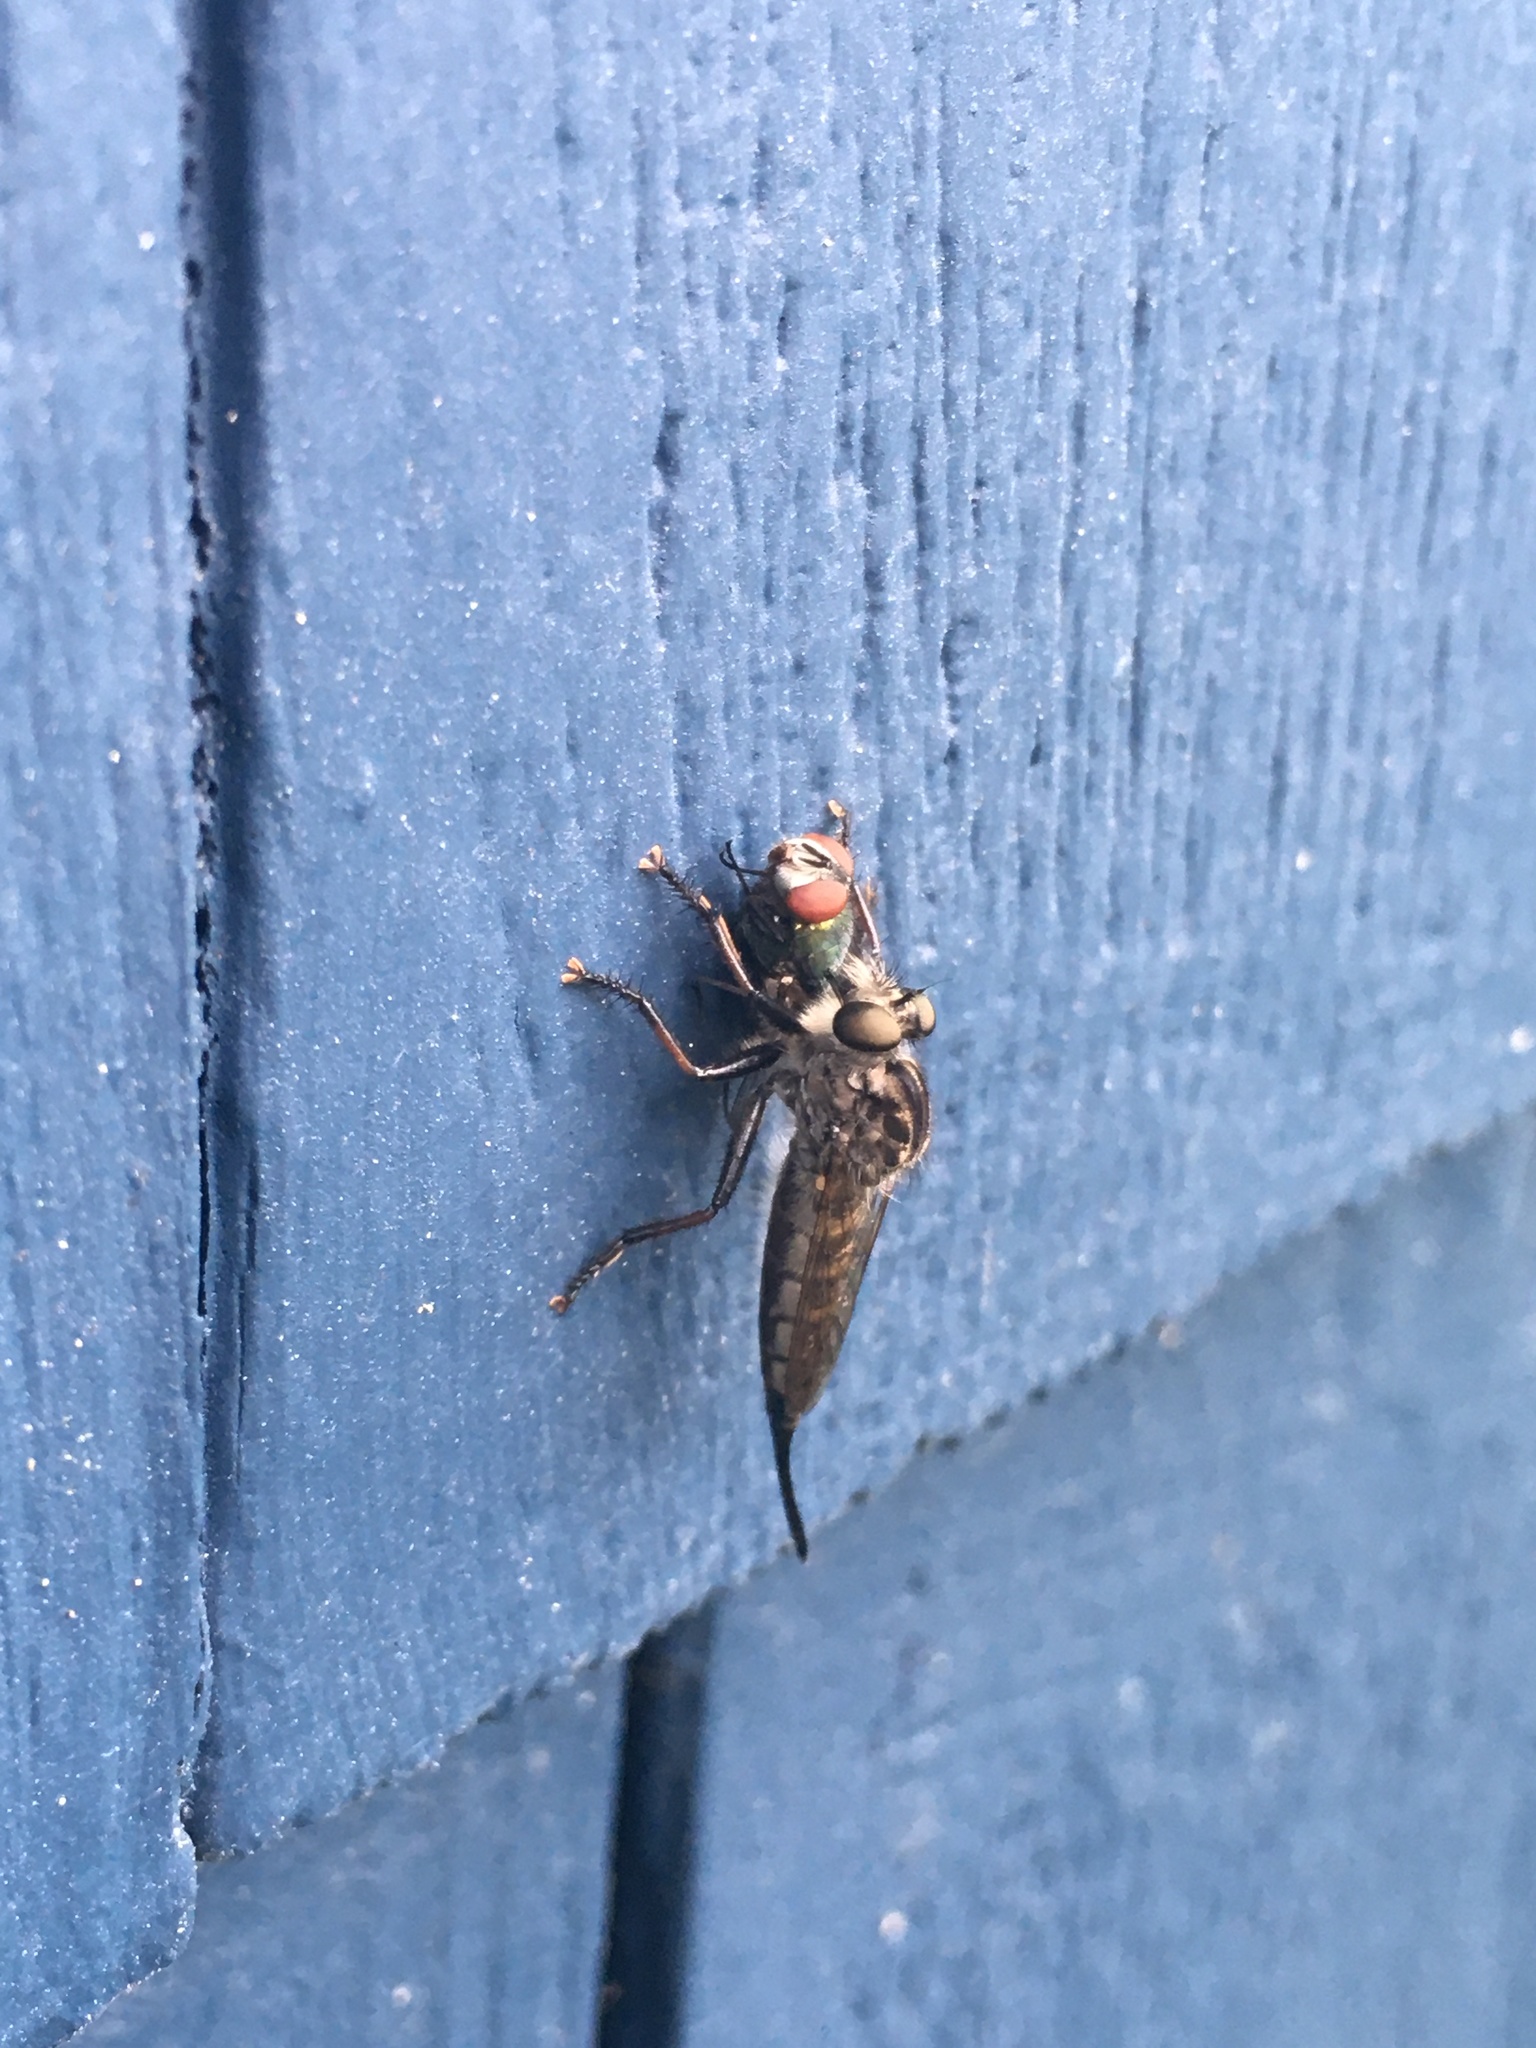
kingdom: Animalia
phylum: Arthropoda
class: Insecta
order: Diptera
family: Asilidae
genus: Efferia
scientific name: Efferia aestuans
